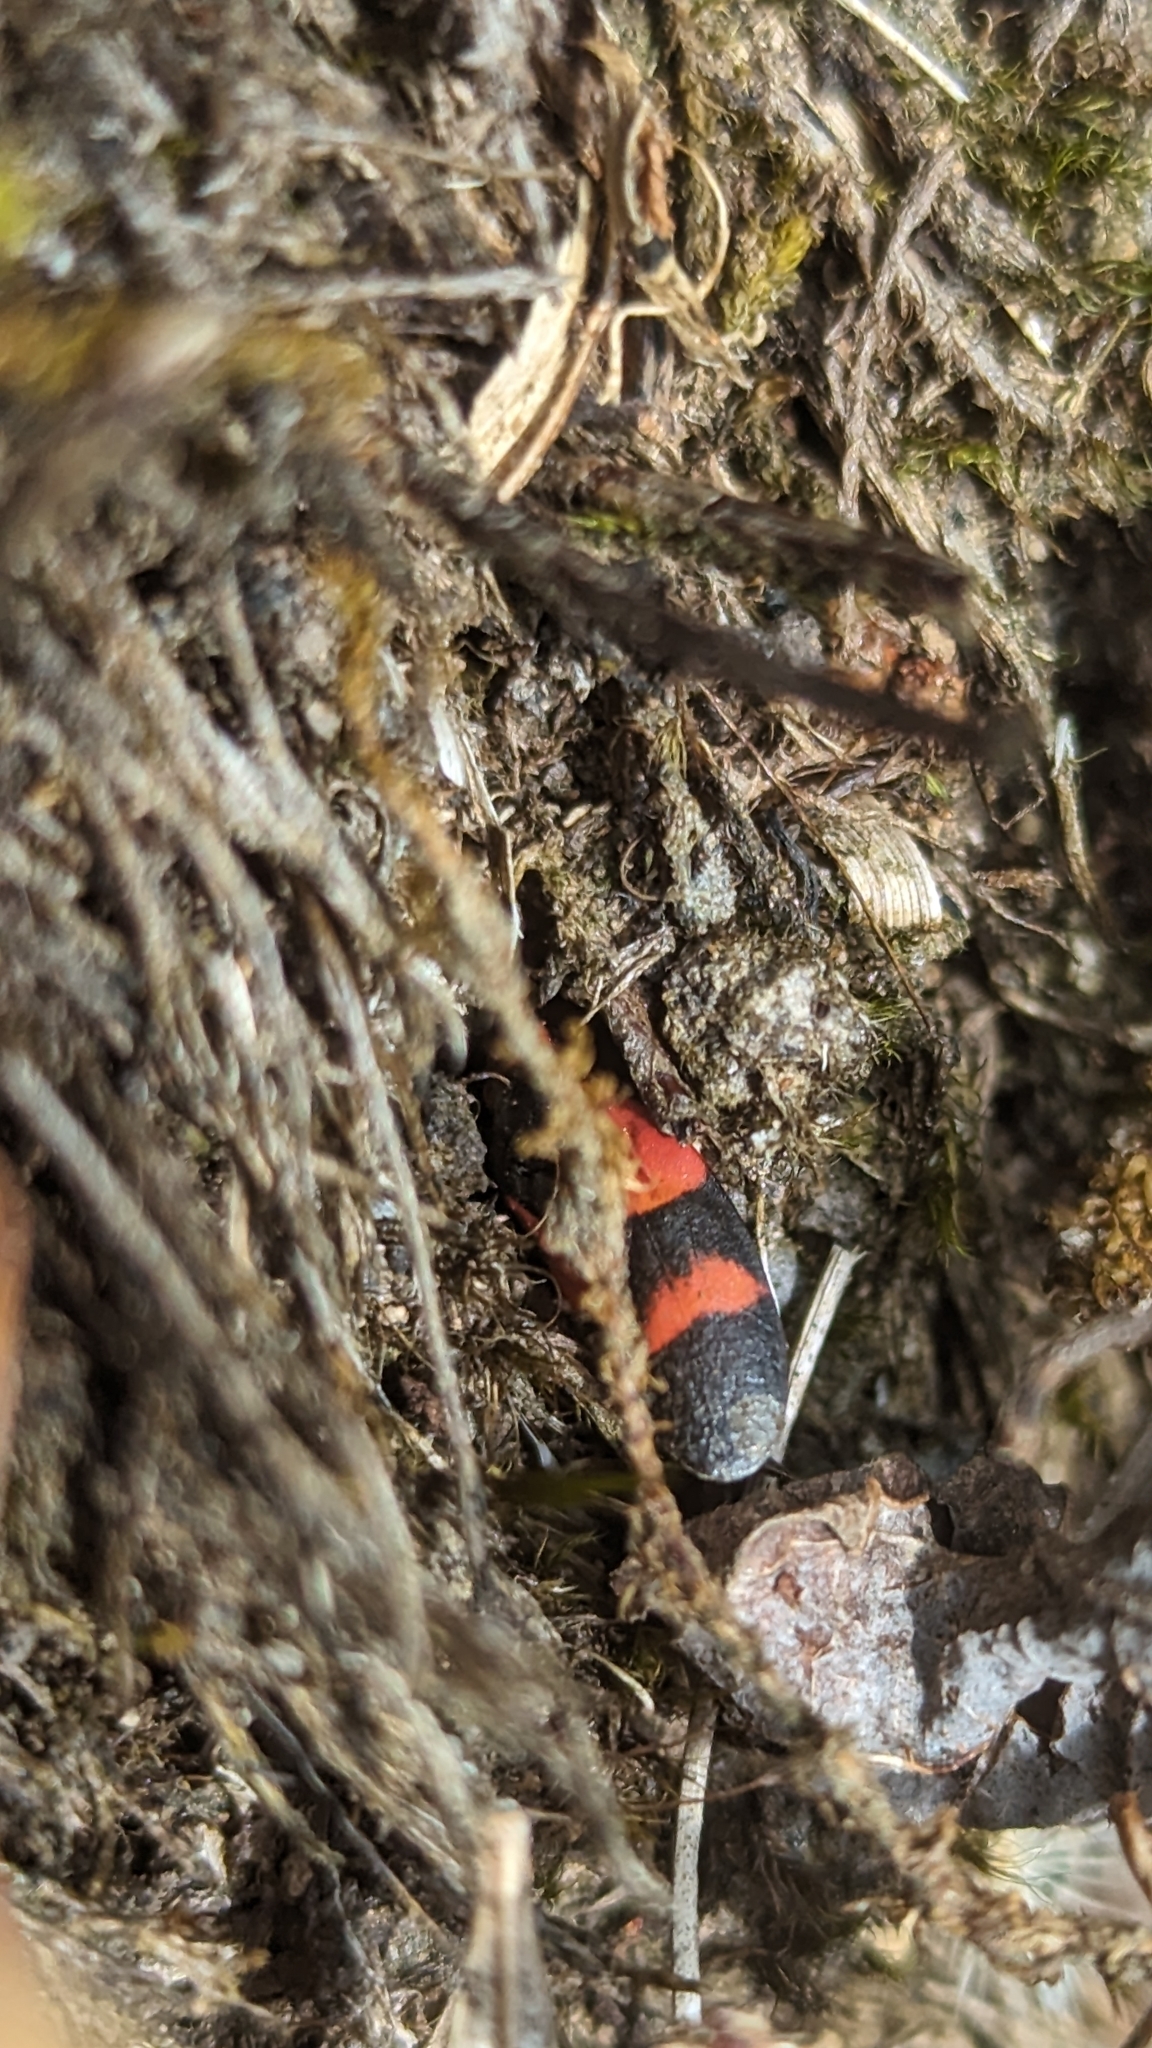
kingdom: Animalia
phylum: Arthropoda
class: Insecta
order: Hemiptera
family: Cercopidae
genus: Prosapia
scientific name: Prosapia
